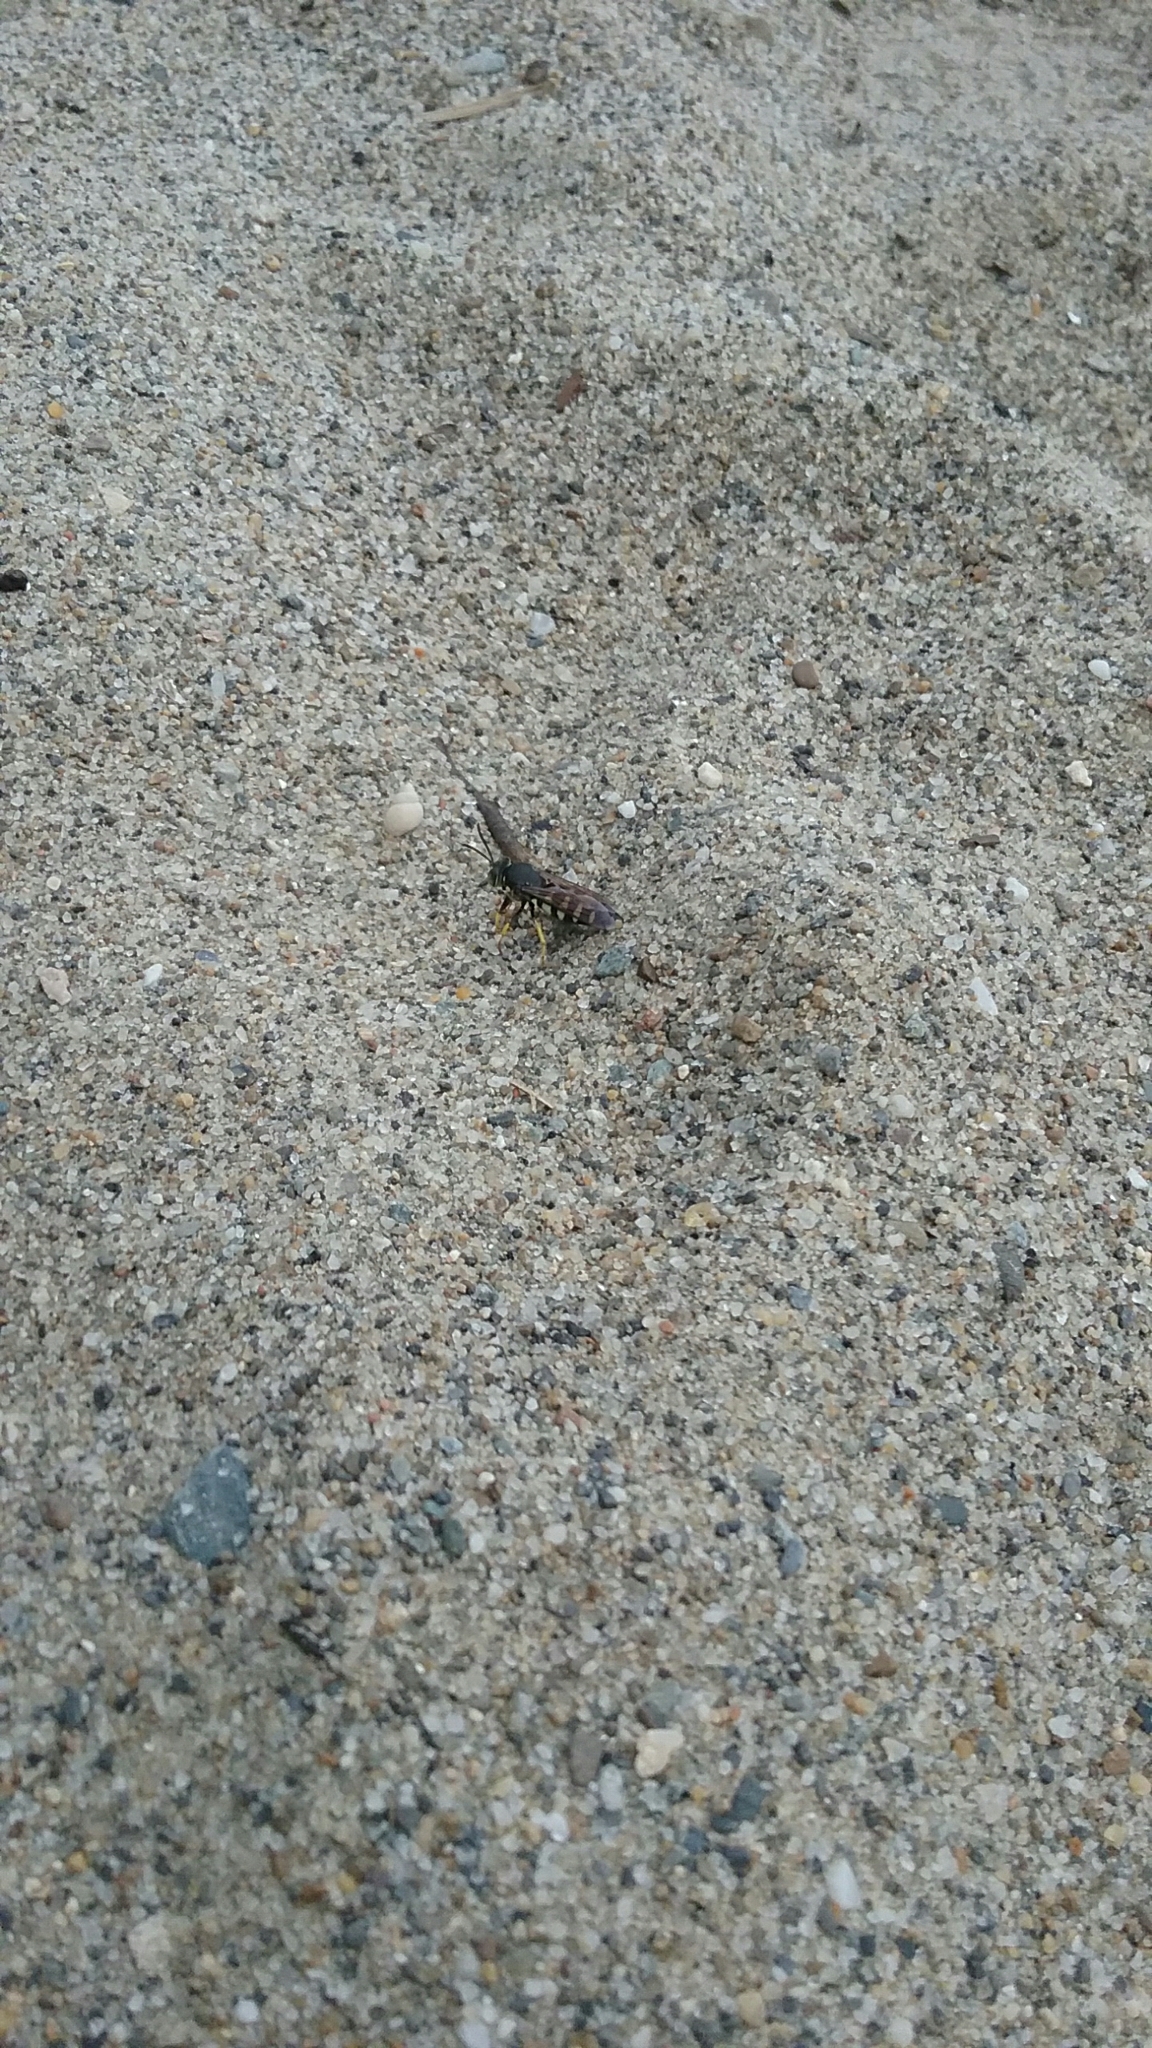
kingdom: Animalia
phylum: Arthropoda
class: Insecta
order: Hymenoptera
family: Crabronidae
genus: Bicyrtes
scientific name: Bicyrtes quadrifasciatus
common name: Four-banded stink bug hunter wasp
